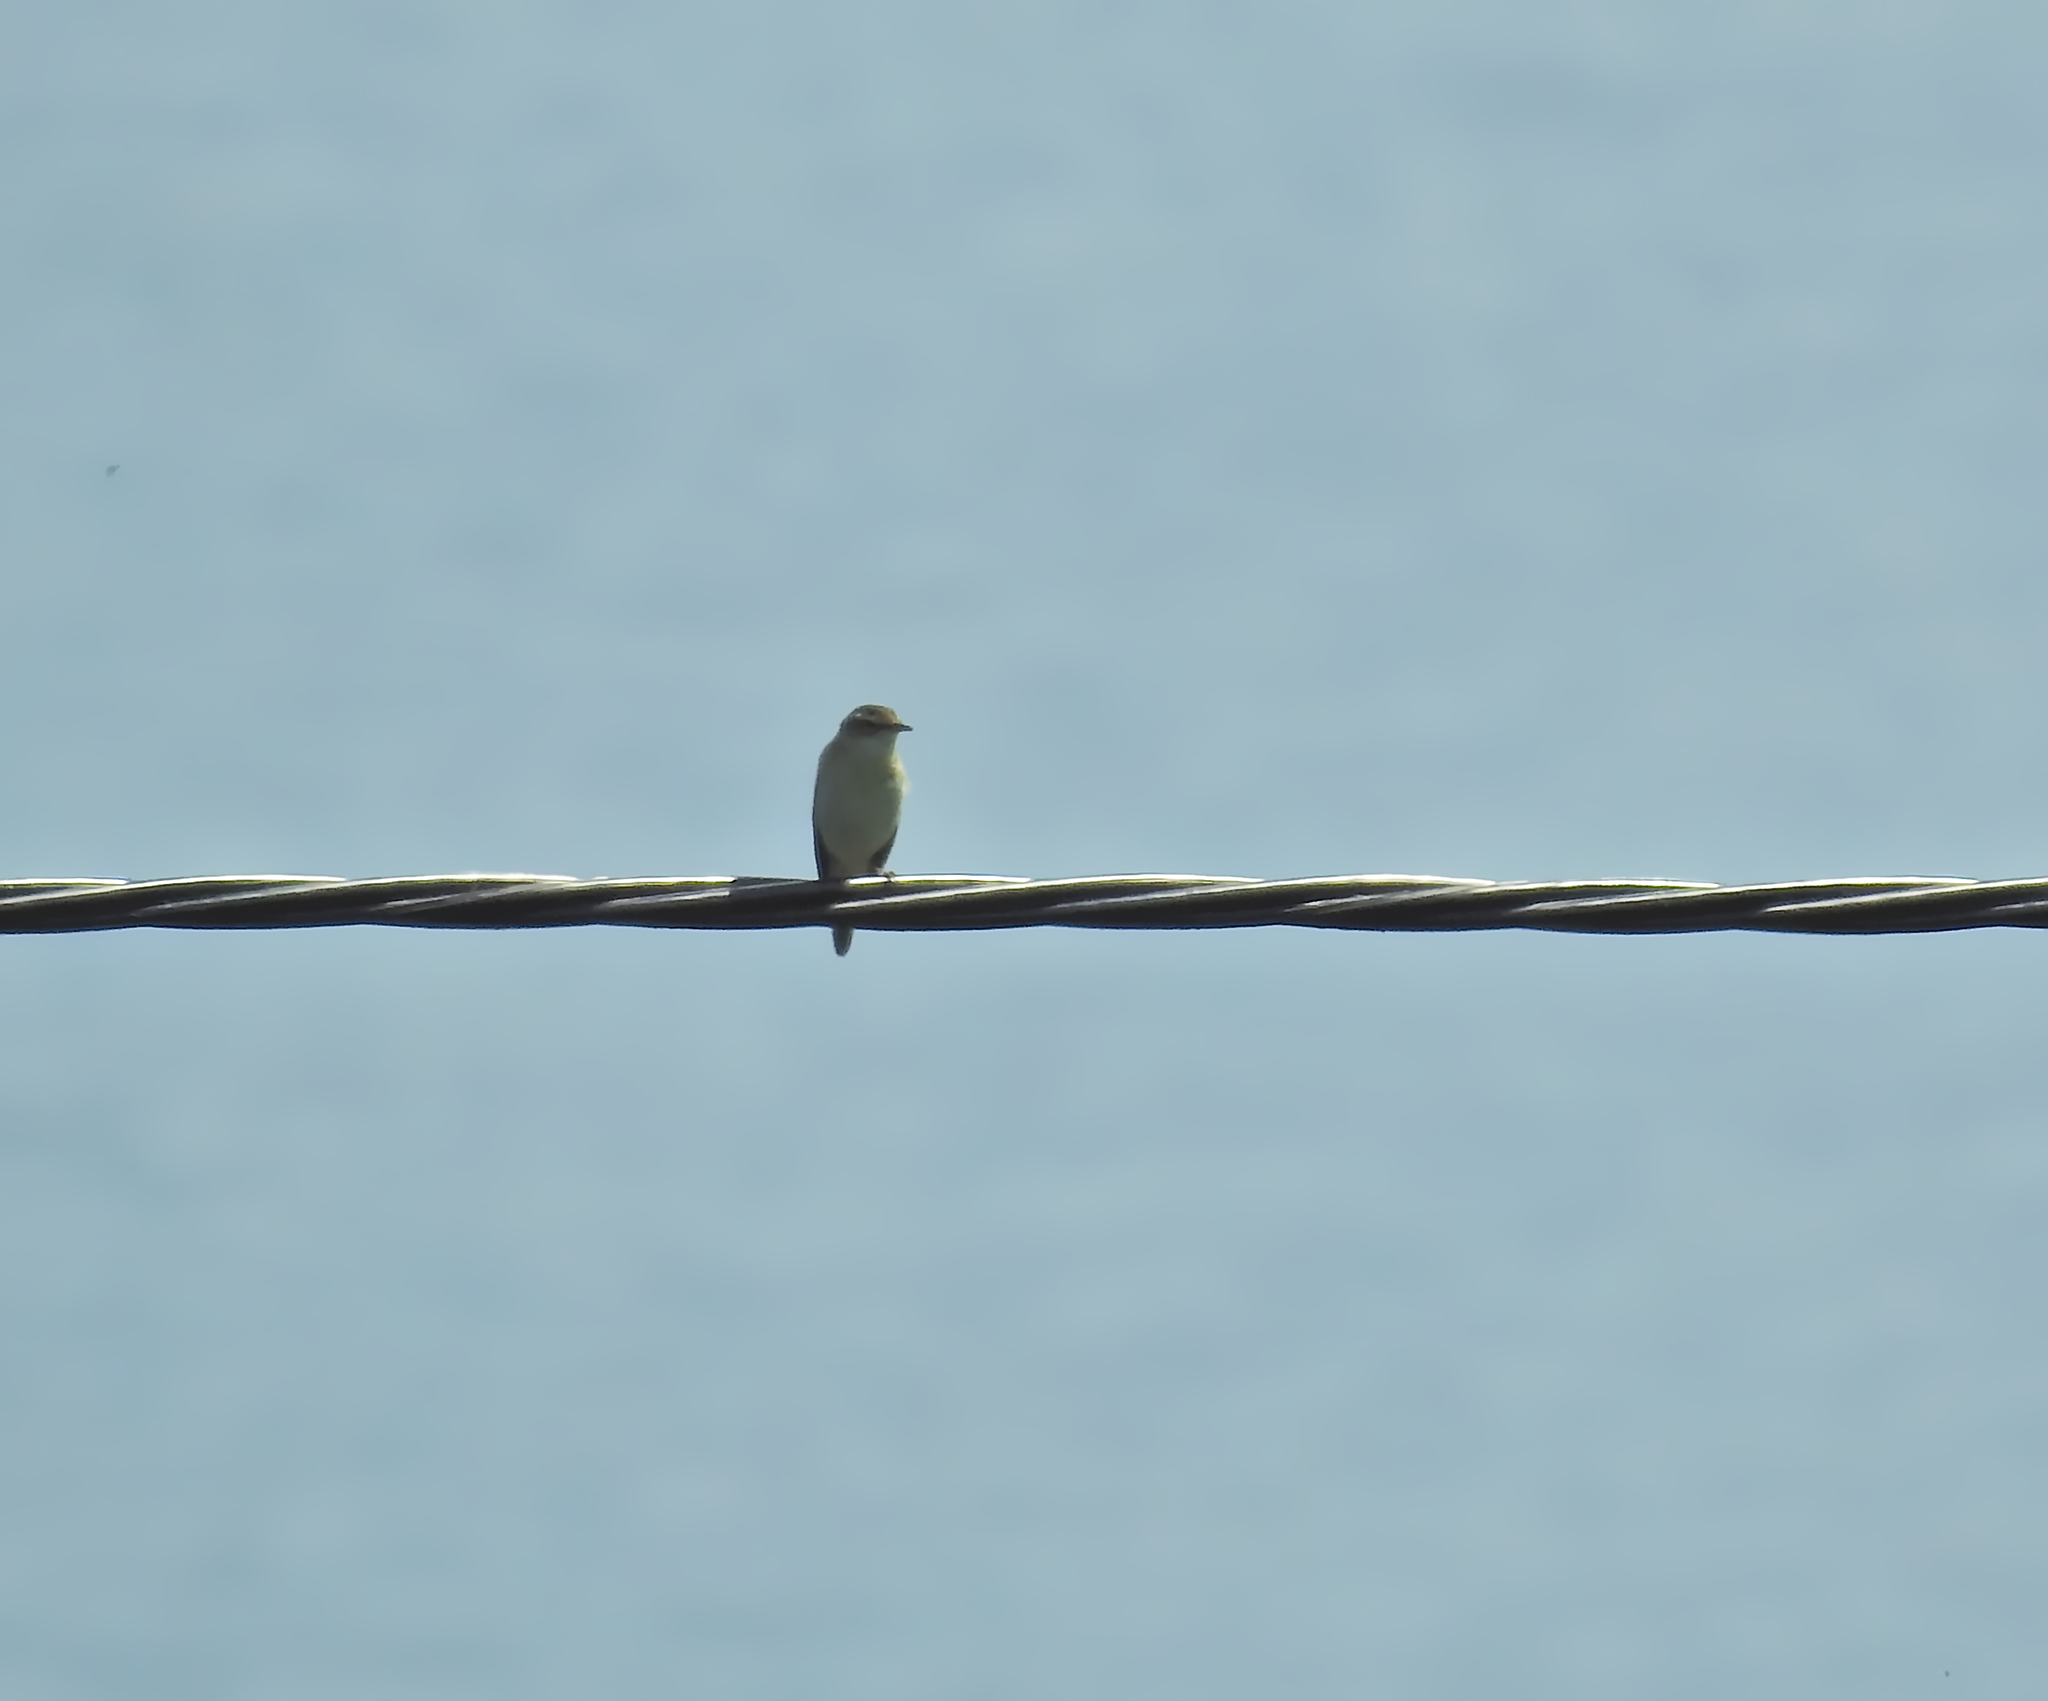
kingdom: Animalia
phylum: Chordata
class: Aves
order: Passeriformes
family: Acrocephalidae
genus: Acrocephalus
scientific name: Acrocephalus schoenobaenus
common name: Sedge warbler
